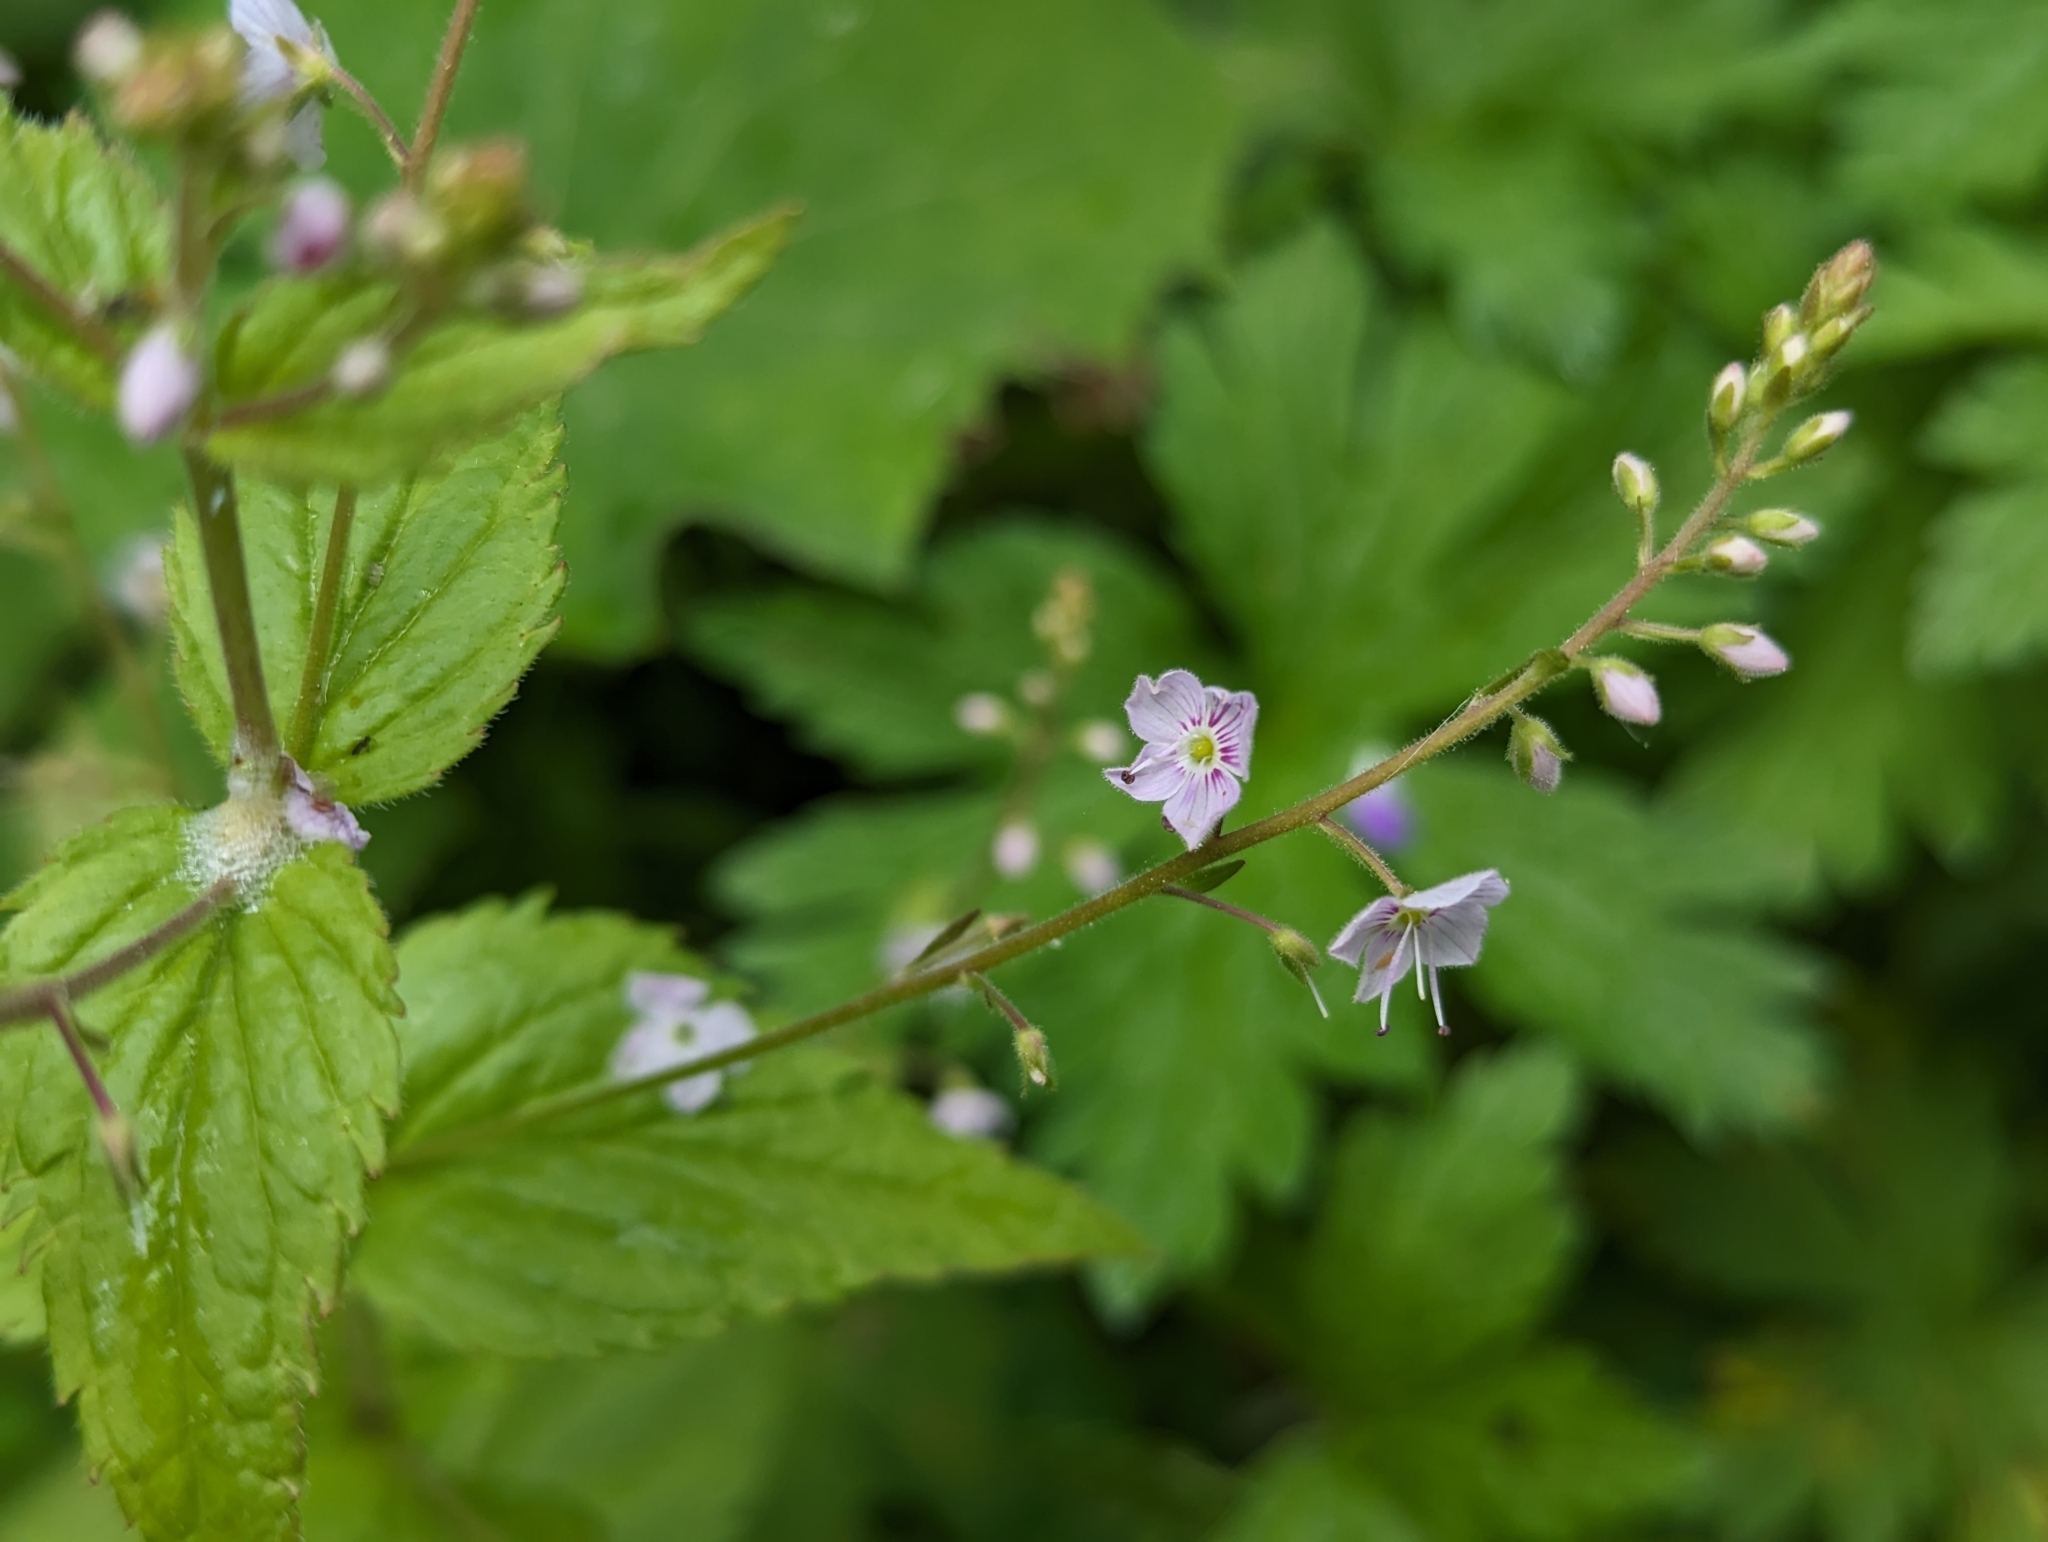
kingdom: Plantae
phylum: Tracheophyta
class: Magnoliopsida
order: Lamiales
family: Plantaginaceae
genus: Veronica
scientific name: Veronica urticifolia
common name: Nettle-leaf speedwell
